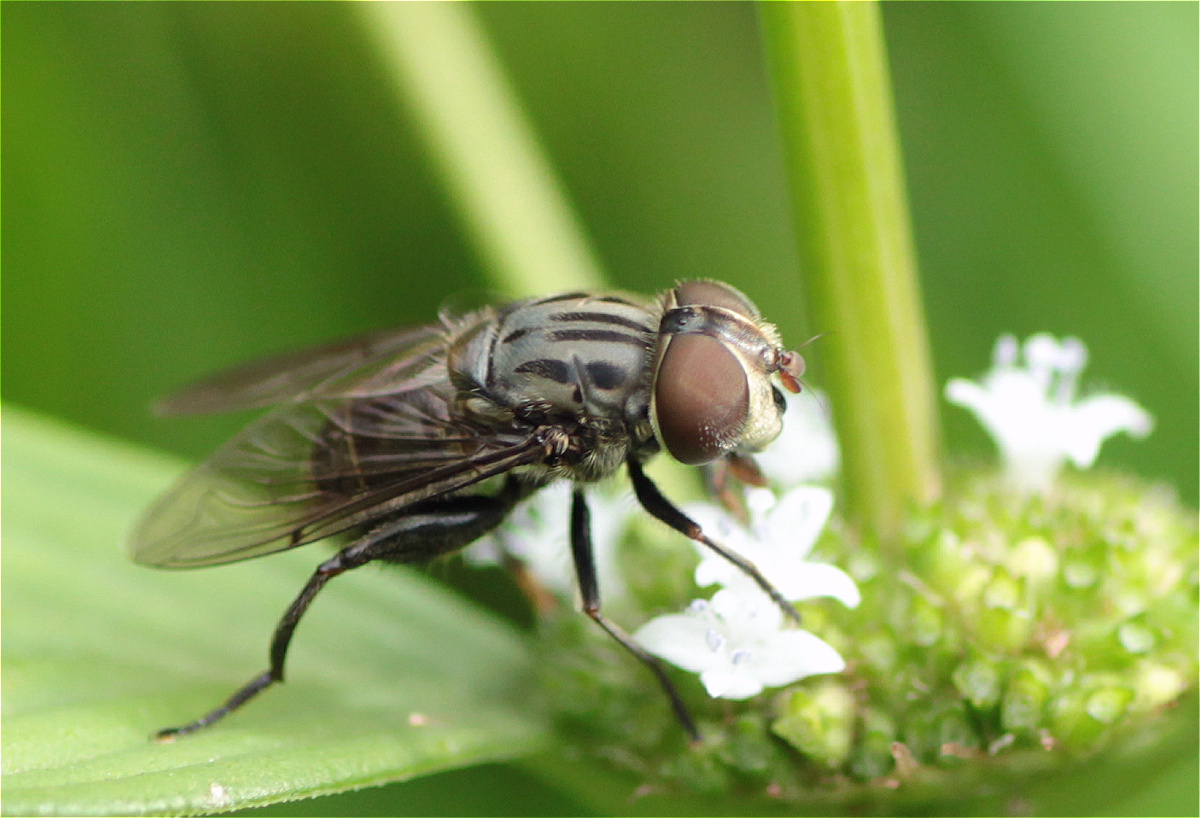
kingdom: Animalia
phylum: Arthropoda
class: Insecta
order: Diptera
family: Syrphidae
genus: Palpada
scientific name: Palpada furcata
